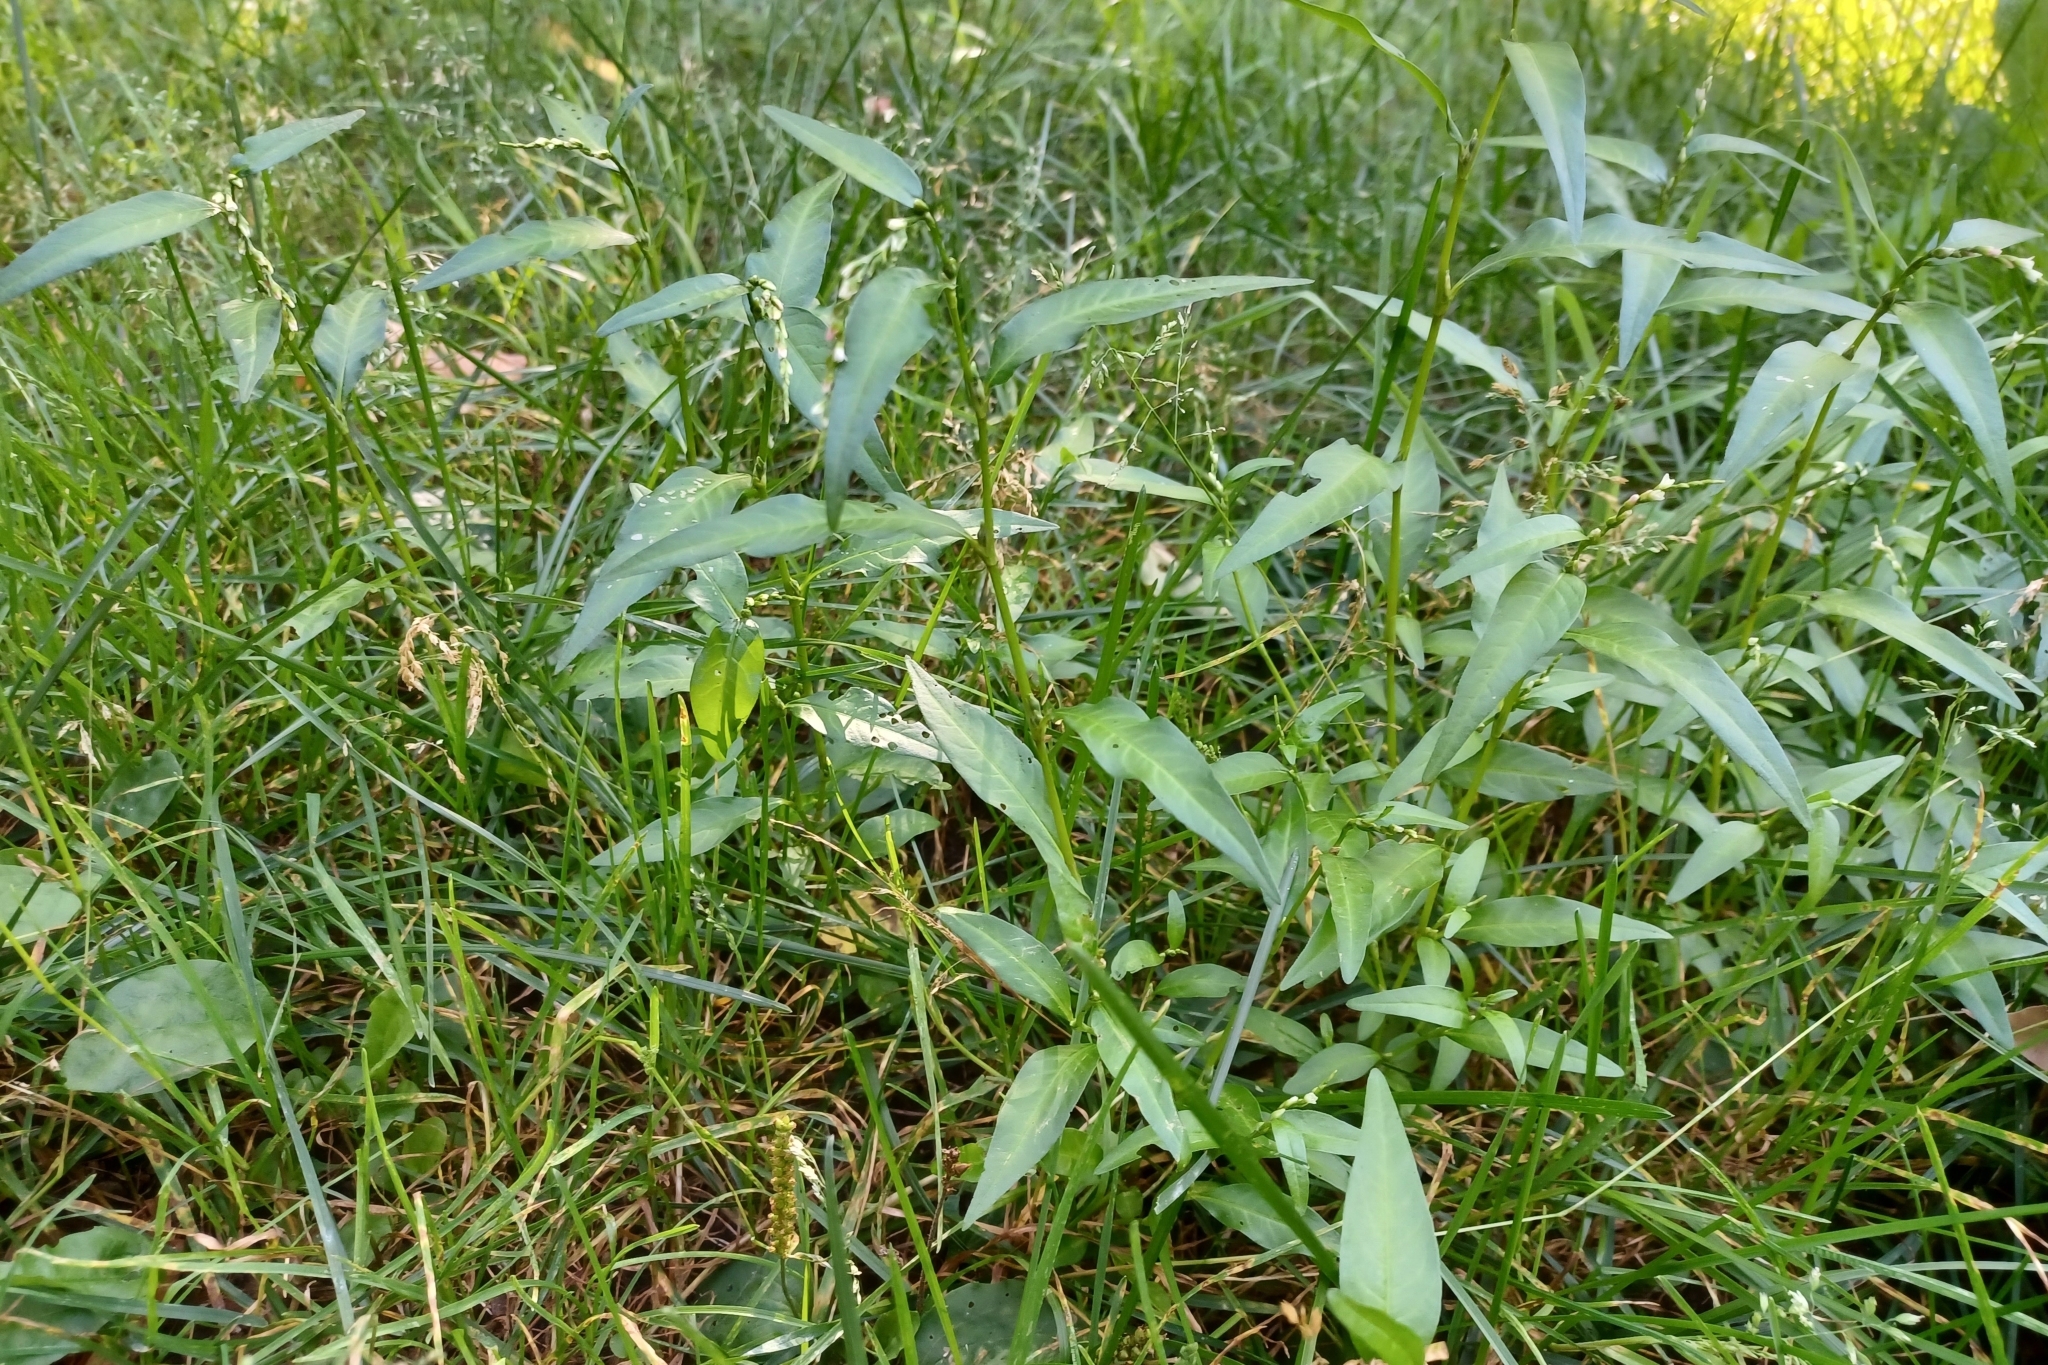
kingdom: Plantae
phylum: Tracheophyta
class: Magnoliopsida
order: Caryophyllales
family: Polygonaceae
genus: Persicaria
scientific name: Persicaria hydropiper
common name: Water-pepper
